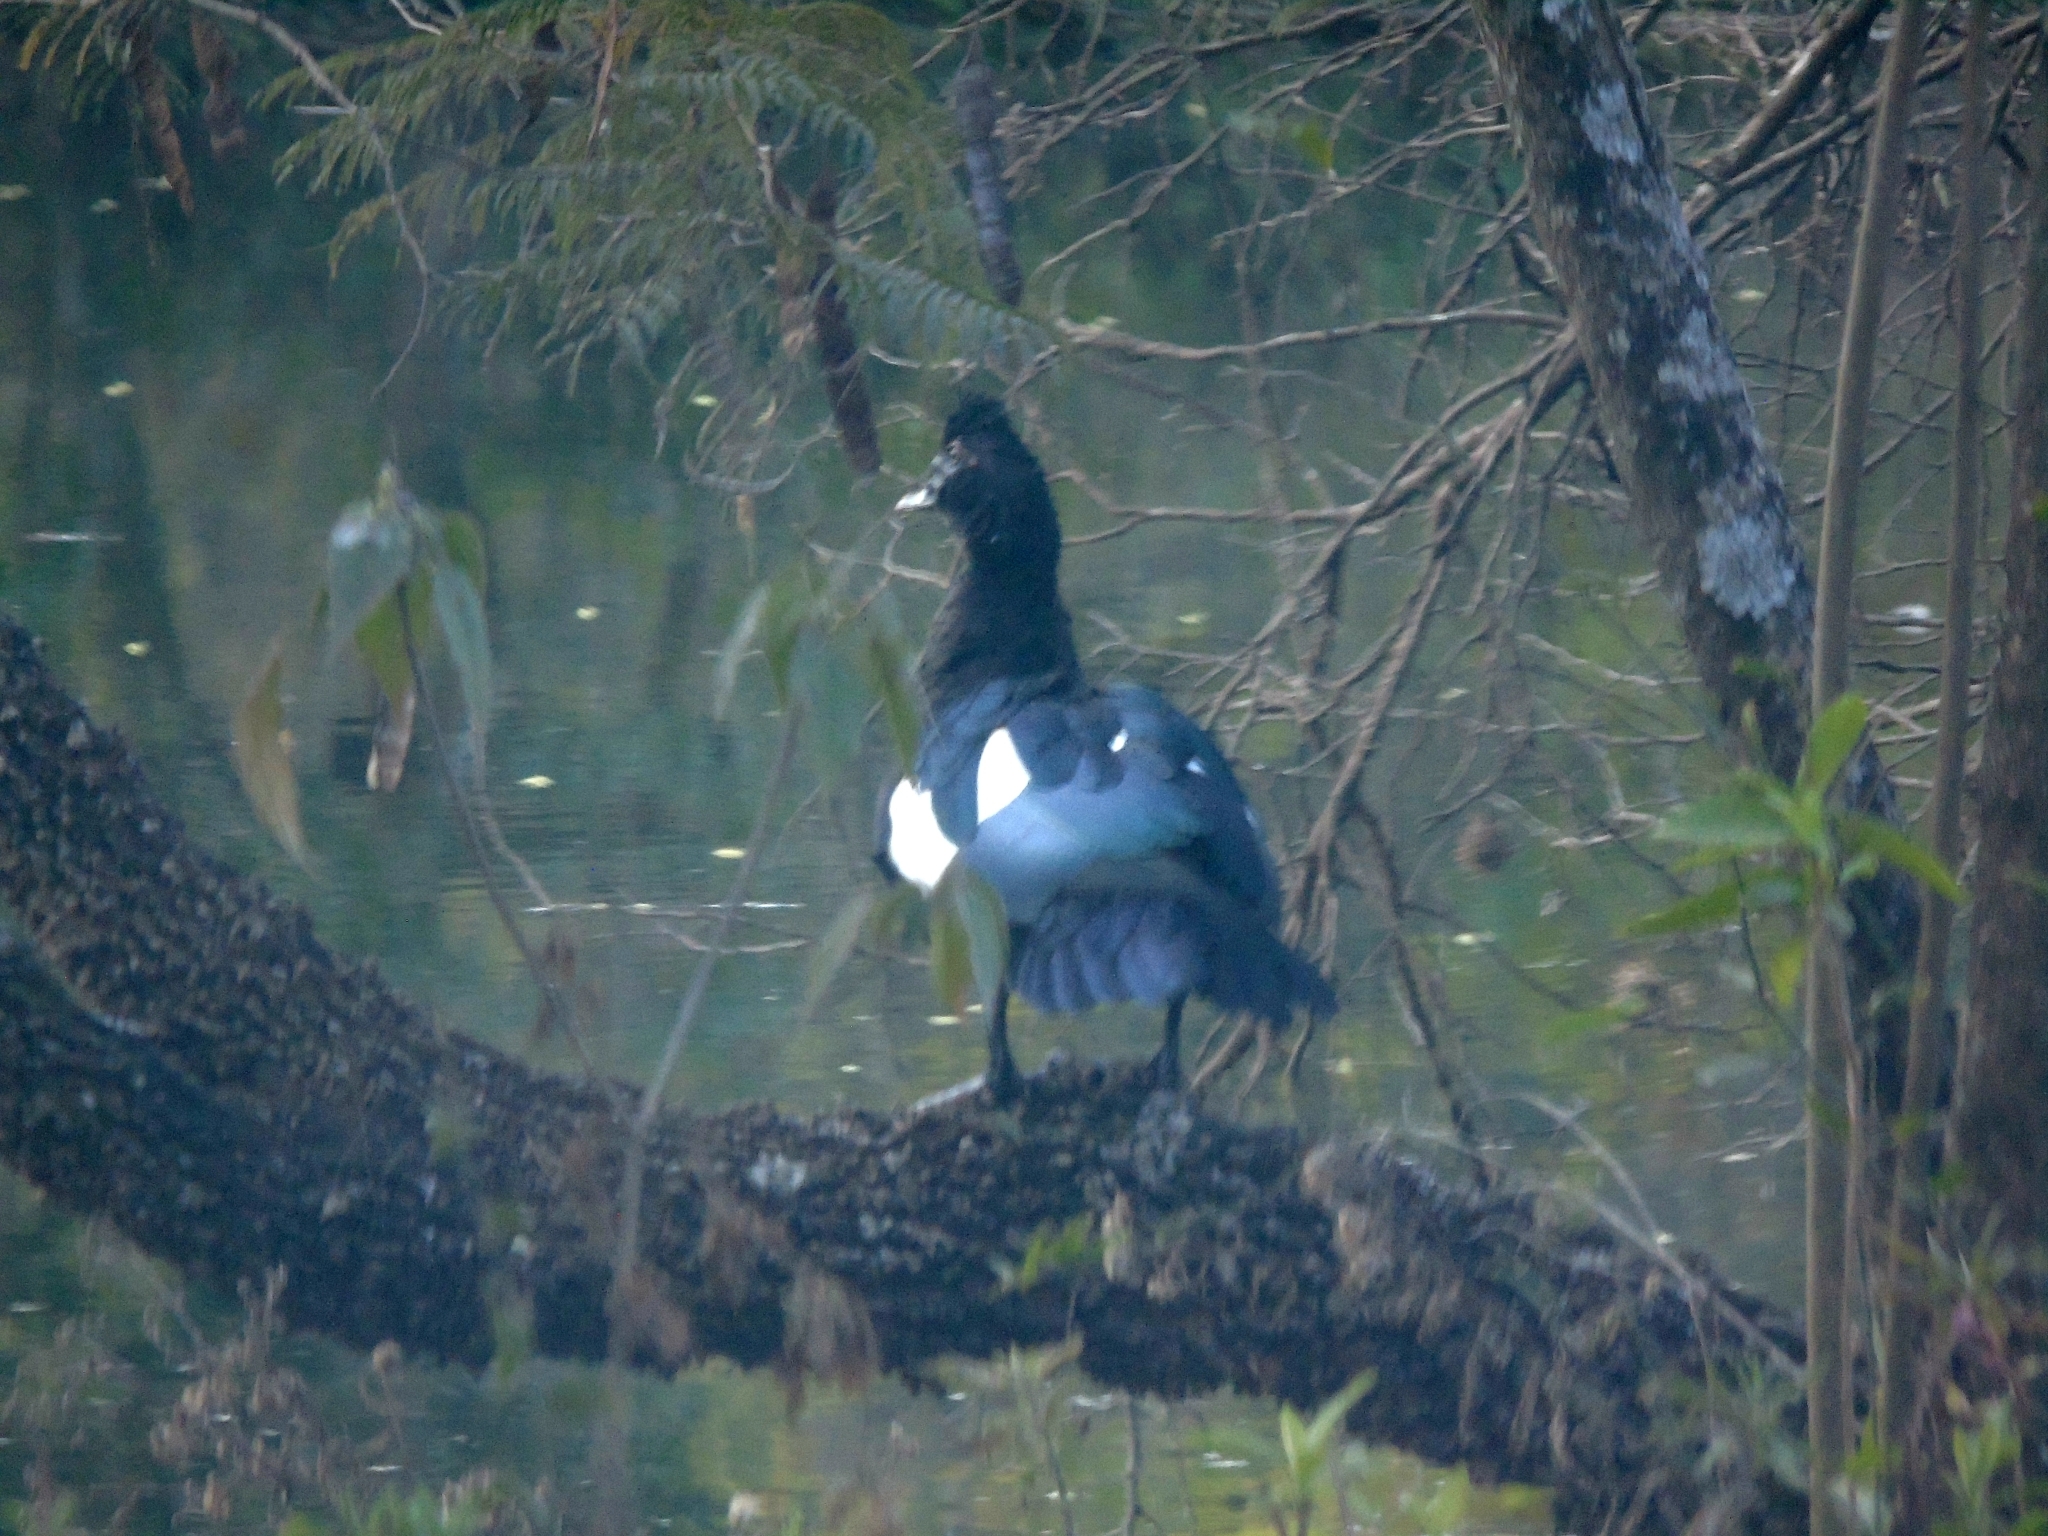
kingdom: Animalia
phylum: Chordata
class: Aves
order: Anseriformes
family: Anatidae
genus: Cairina
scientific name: Cairina moschata
